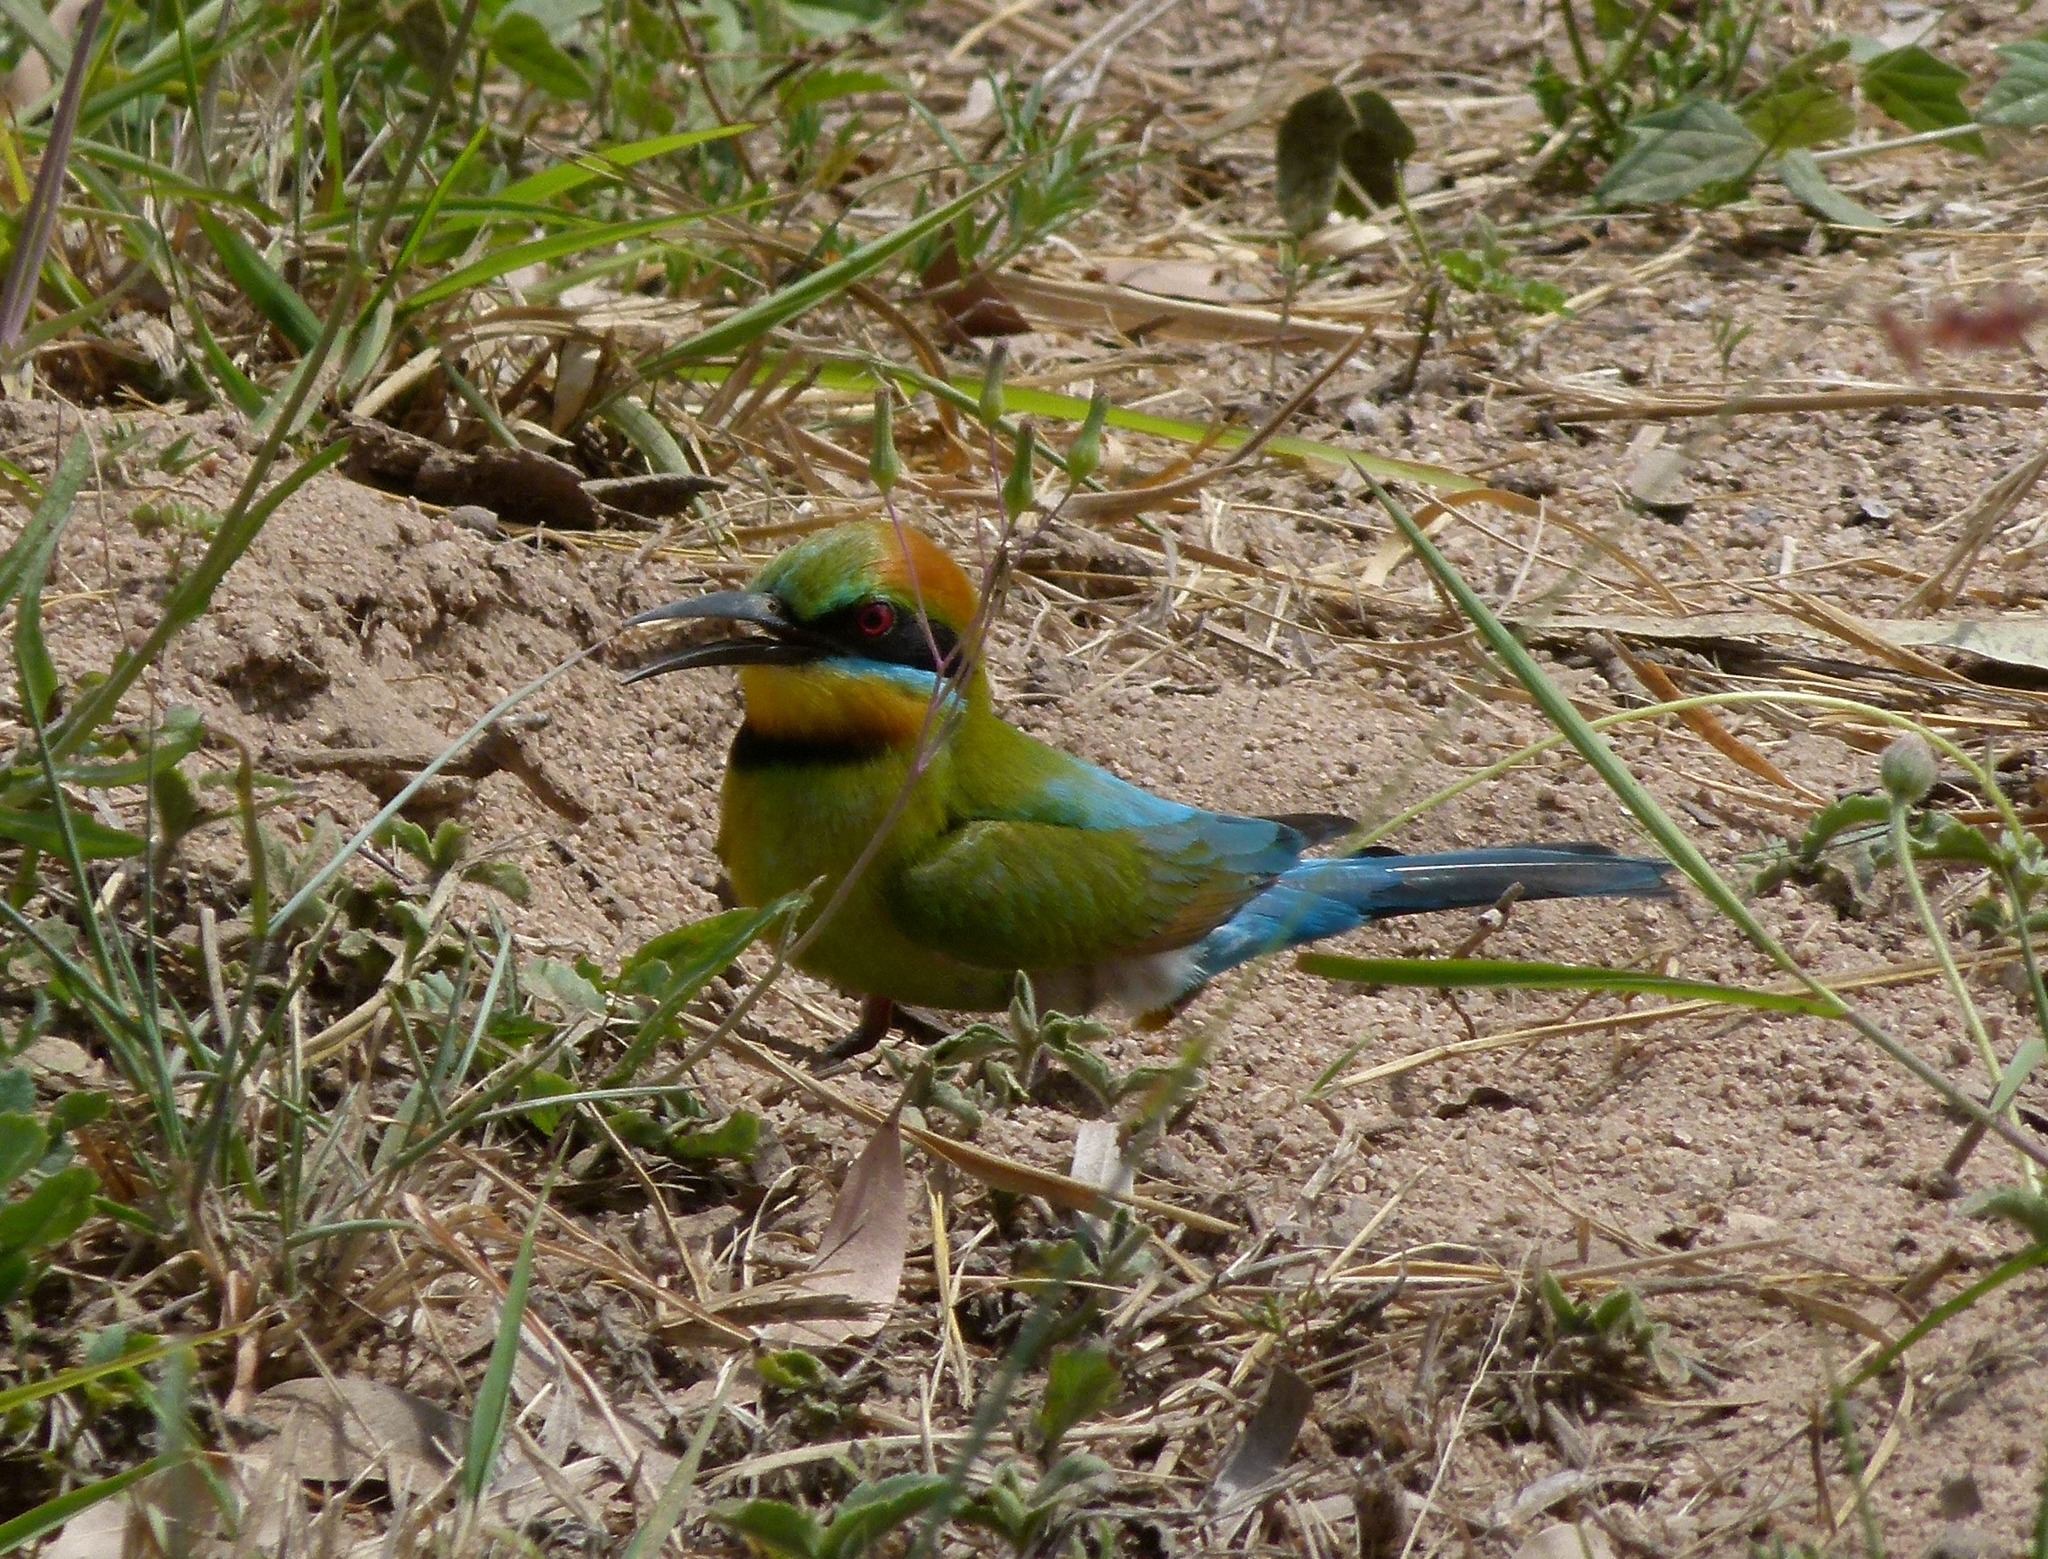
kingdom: Animalia
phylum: Chordata
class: Aves
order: Coraciiformes
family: Meropidae
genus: Merops
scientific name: Merops ornatus
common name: Rainbow bee-eater
